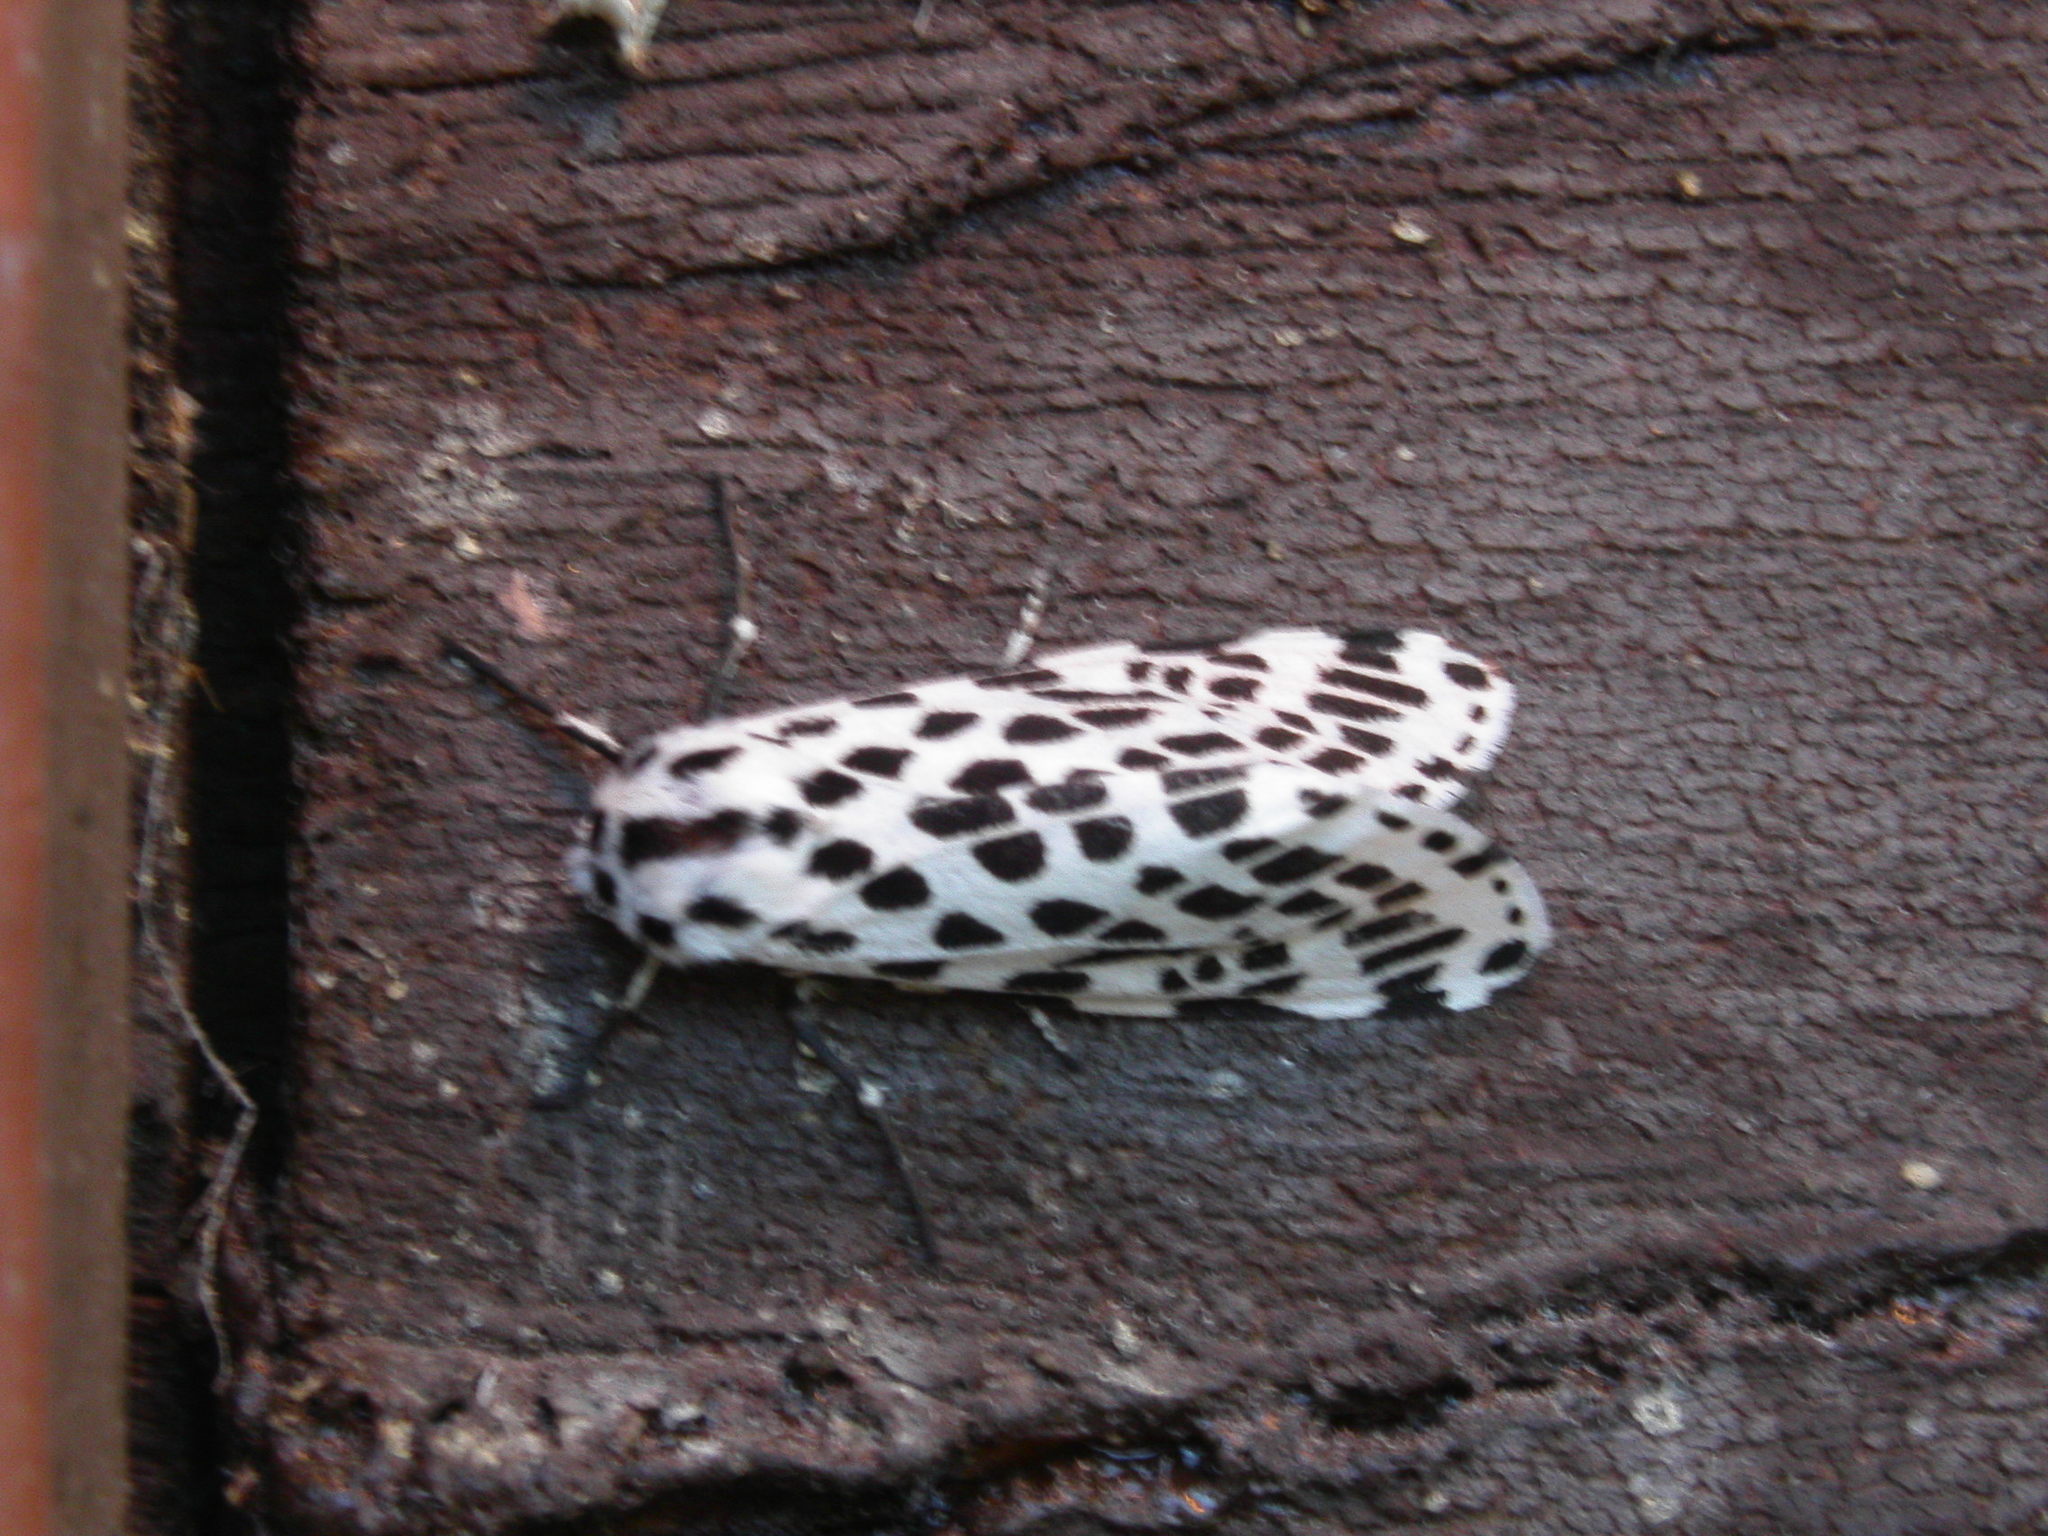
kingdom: Animalia
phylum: Arthropoda
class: Insecta
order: Lepidoptera
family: Erebidae
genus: Hypercompe
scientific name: Hypercompe permaculata
